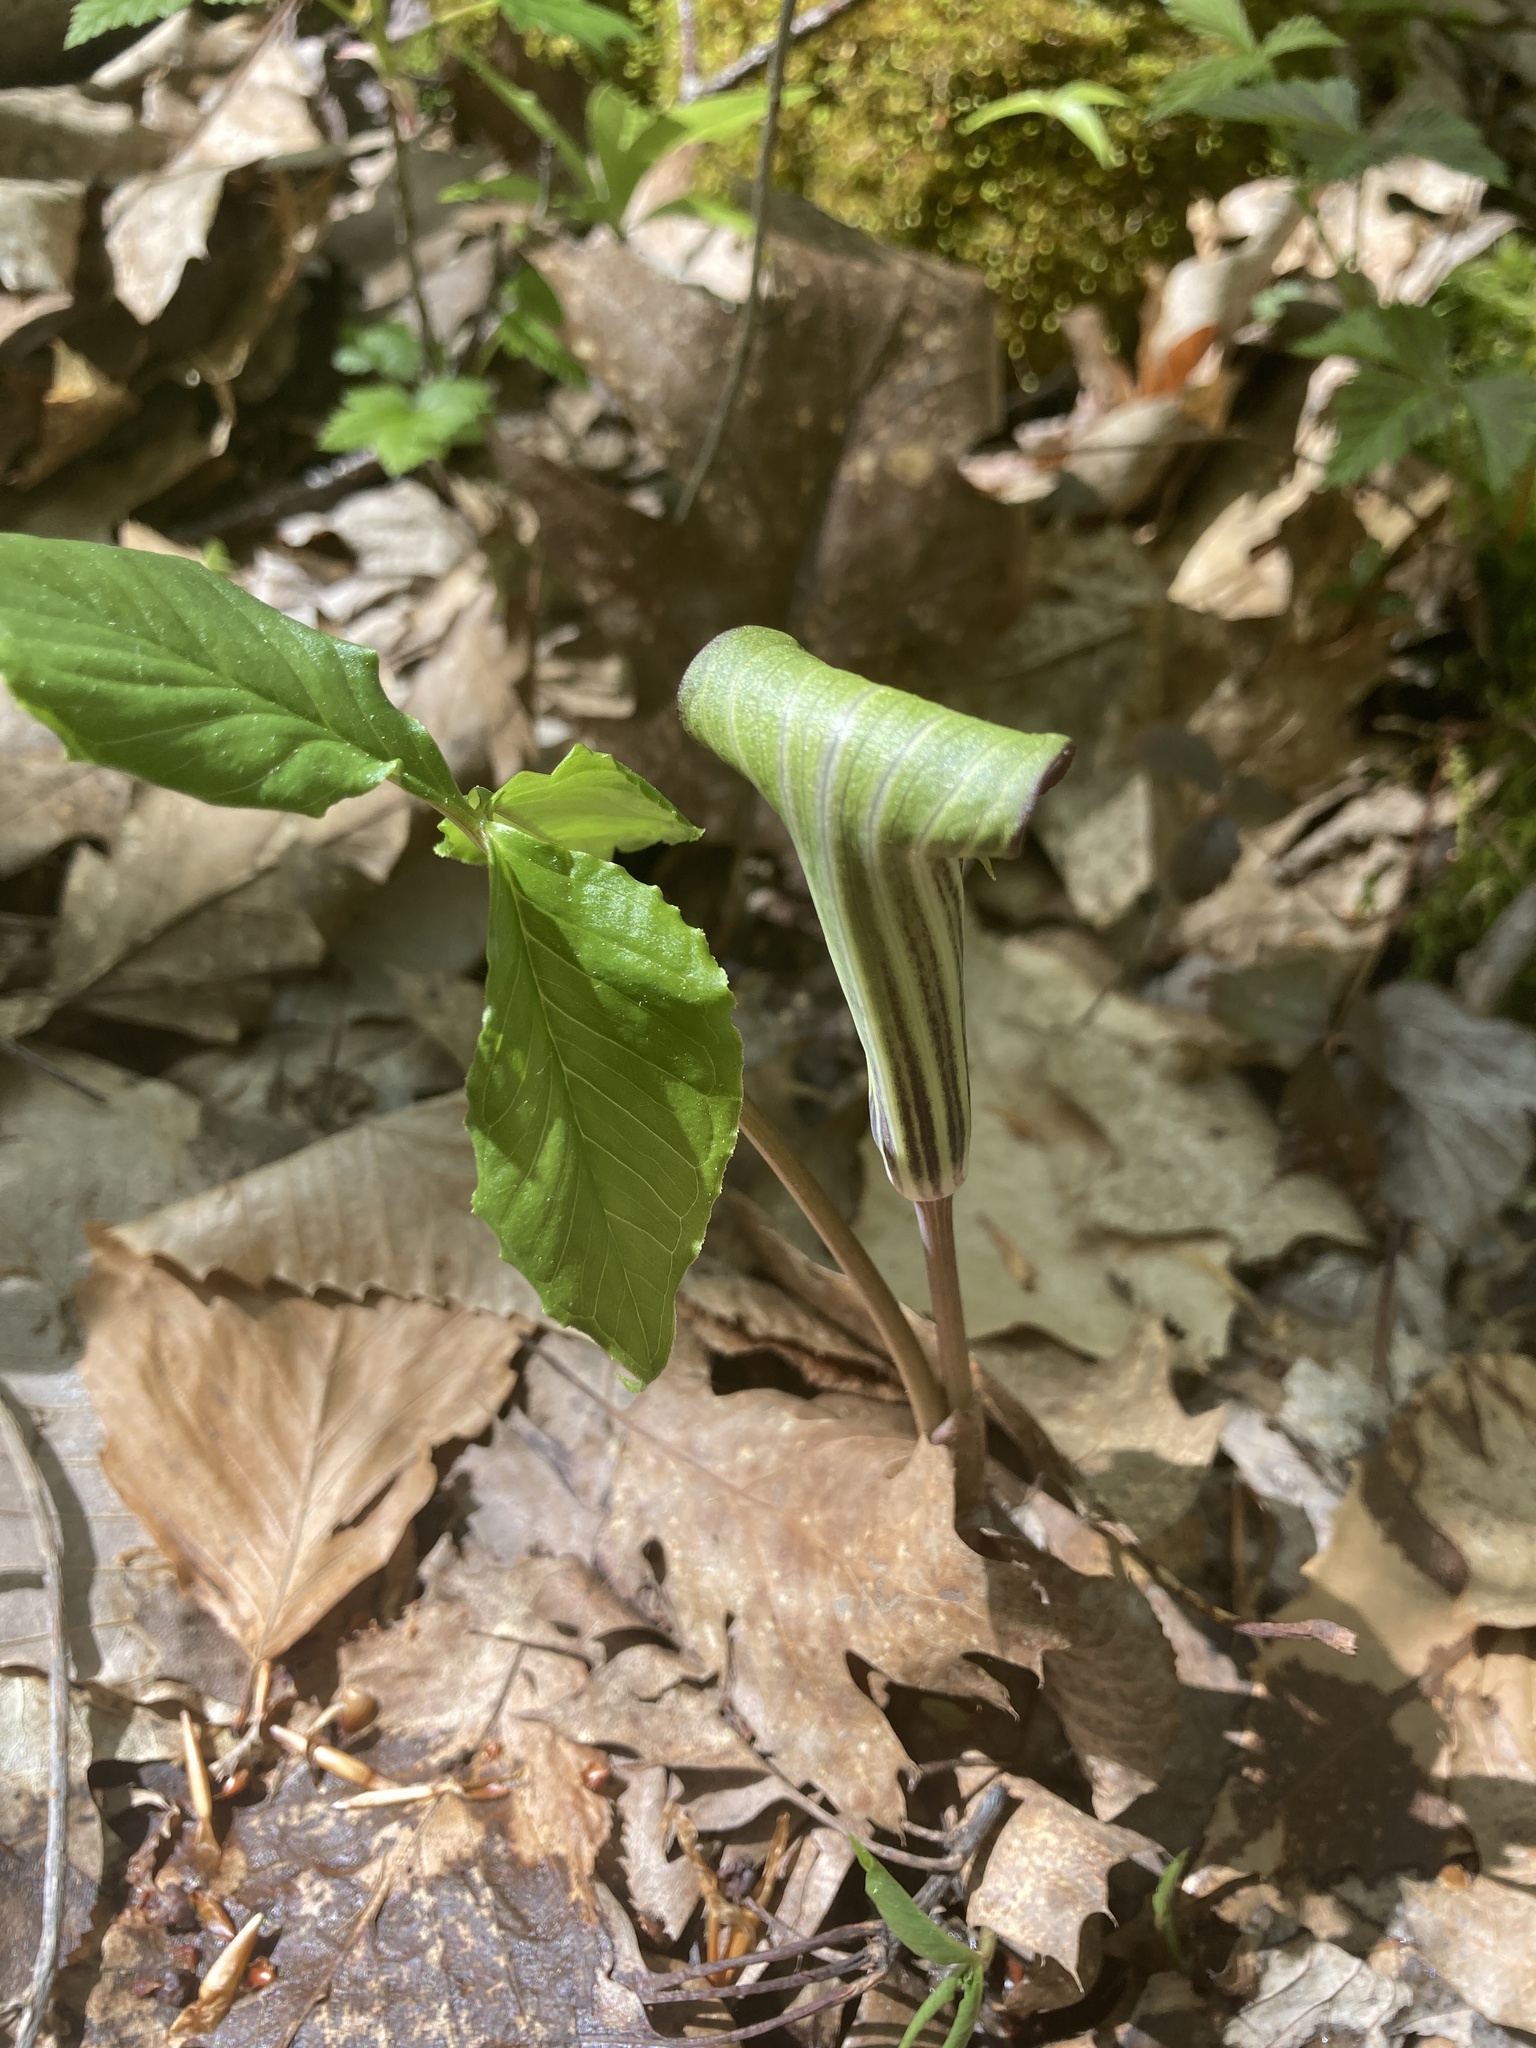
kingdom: Plantae
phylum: Tracheophyta
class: Liliopsida
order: Alismatales
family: Araceae
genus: Arisaema
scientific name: Arisaema triphyllum
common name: Jack-in-the-pulpit
